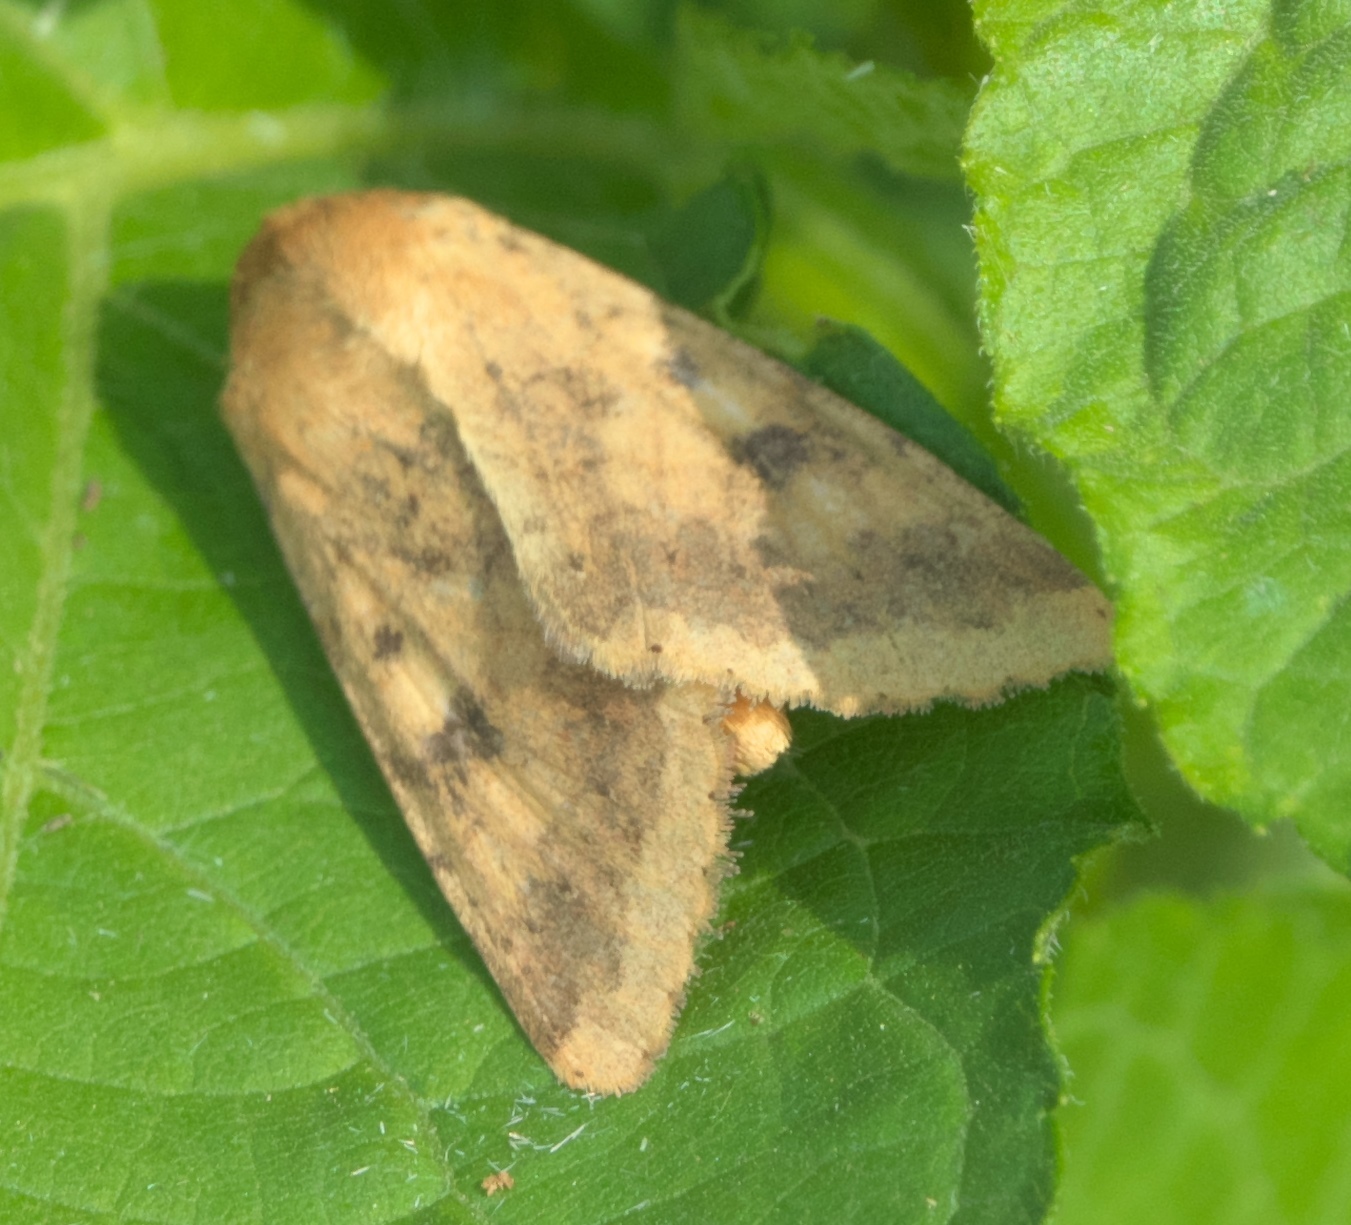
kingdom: Animalia
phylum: Arthropoda
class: Insecta
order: Lepidoptera
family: Noctuidae
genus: Helicoverpa
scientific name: Helicoverpa zea
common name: Bollworm
